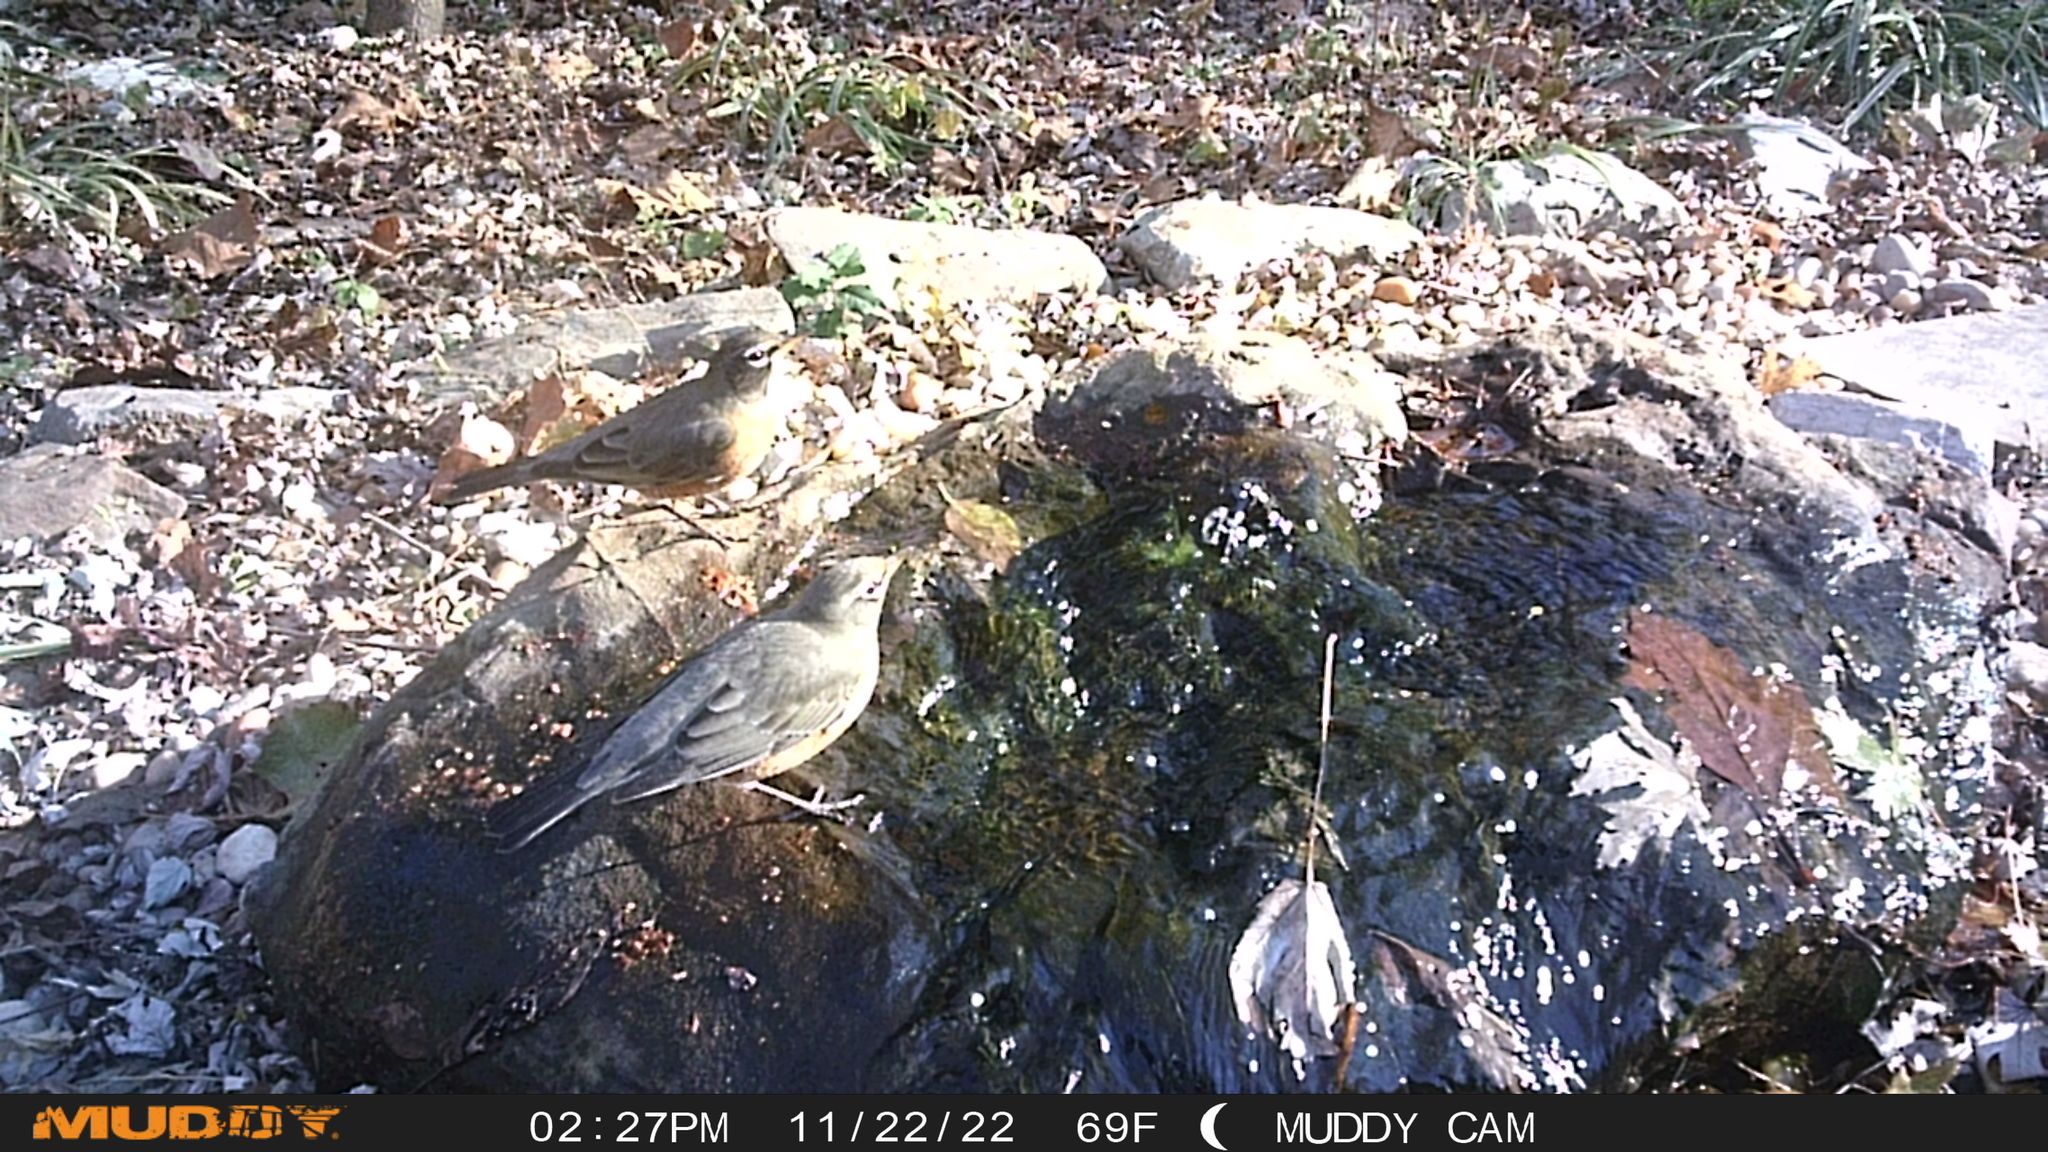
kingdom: Animalia
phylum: Chordata
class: Aves
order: Passeriformes
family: Turdidae
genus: Turdus
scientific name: Turdus migratorius
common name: American robin
